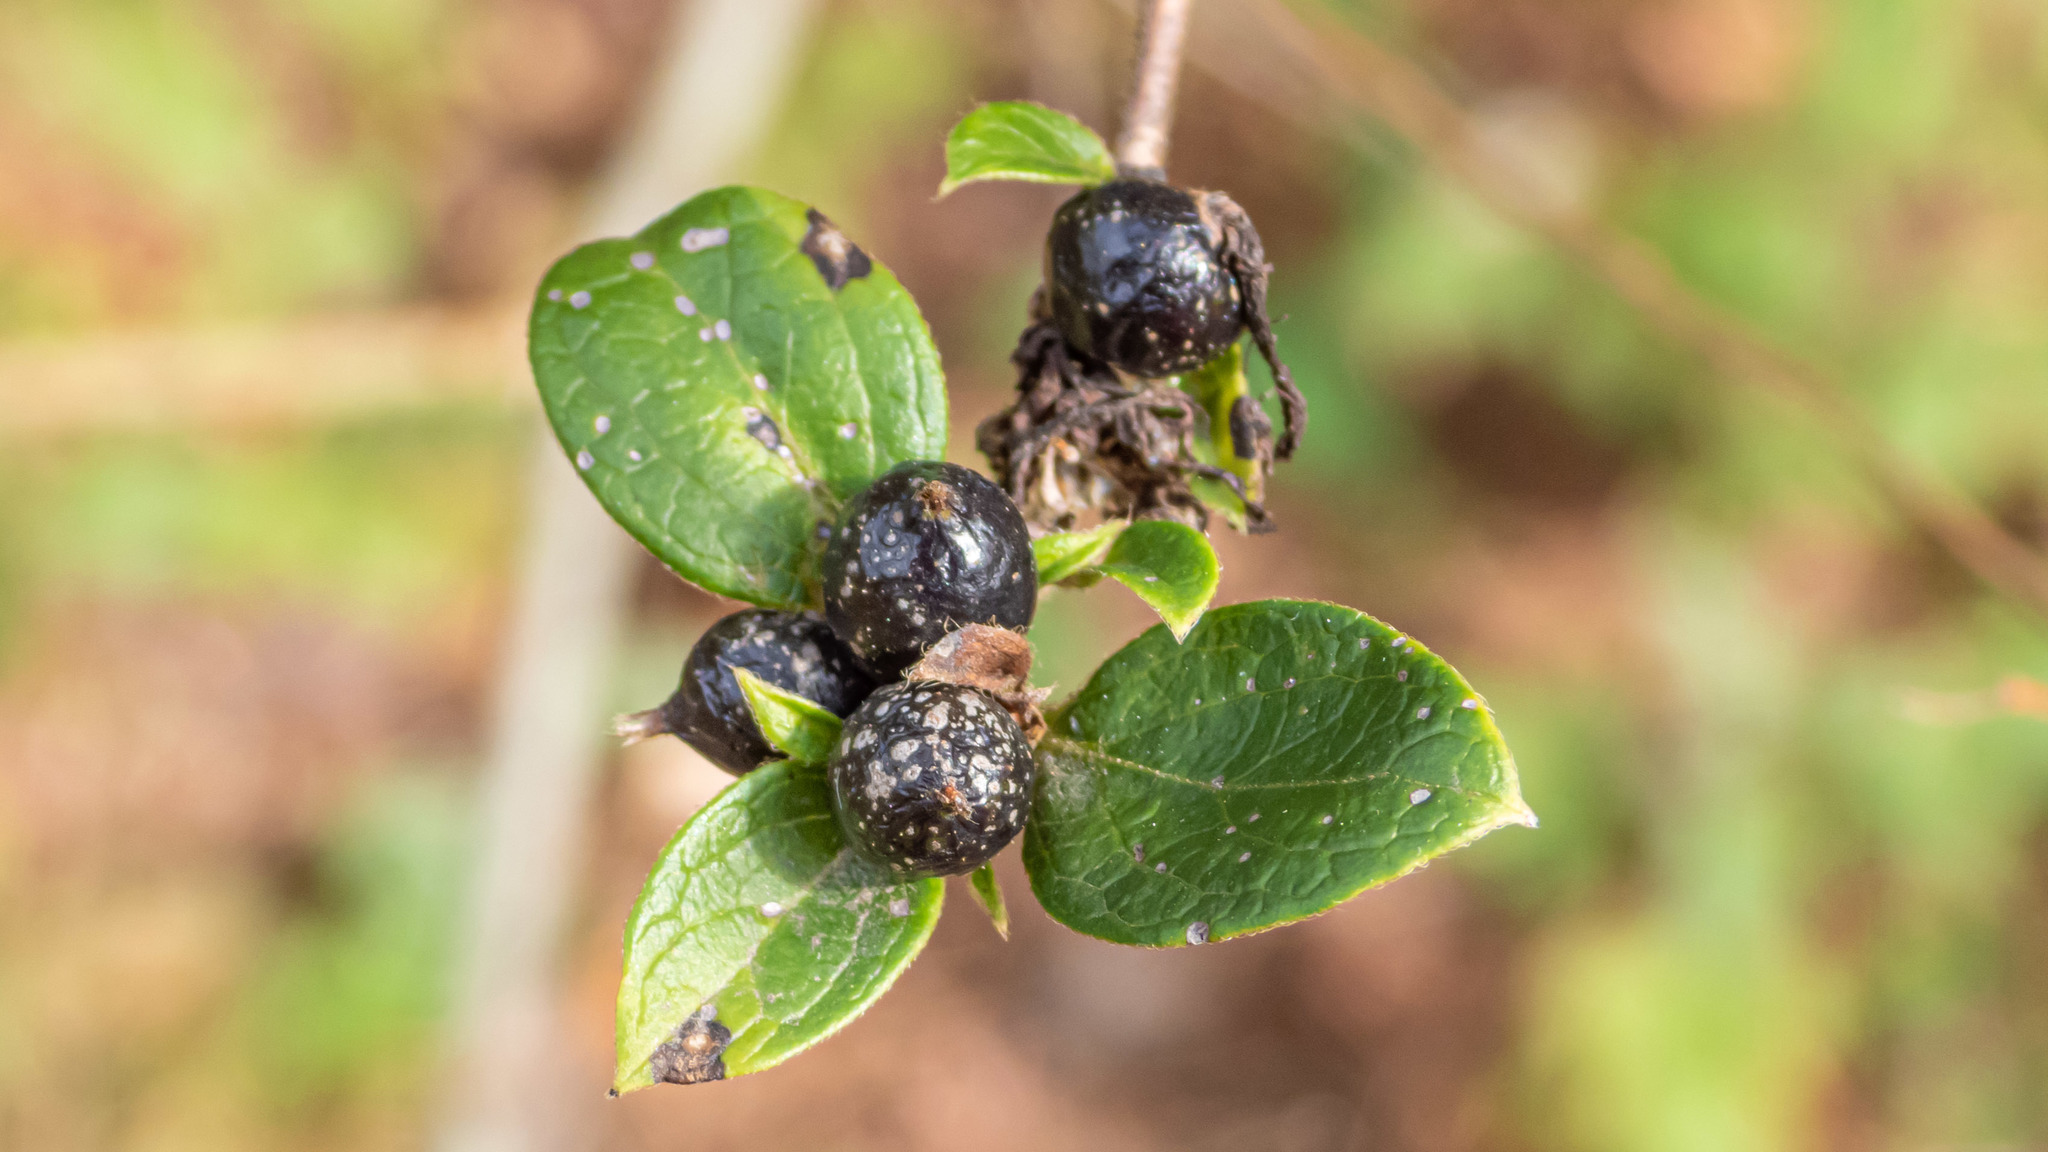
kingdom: Plantae
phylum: Tracheophyta
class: Magnoliopsida
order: Dipsacales
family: Caprifoliaceae
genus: Lonicera
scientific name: Lonicera japonica
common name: Japanese honeysuckle
